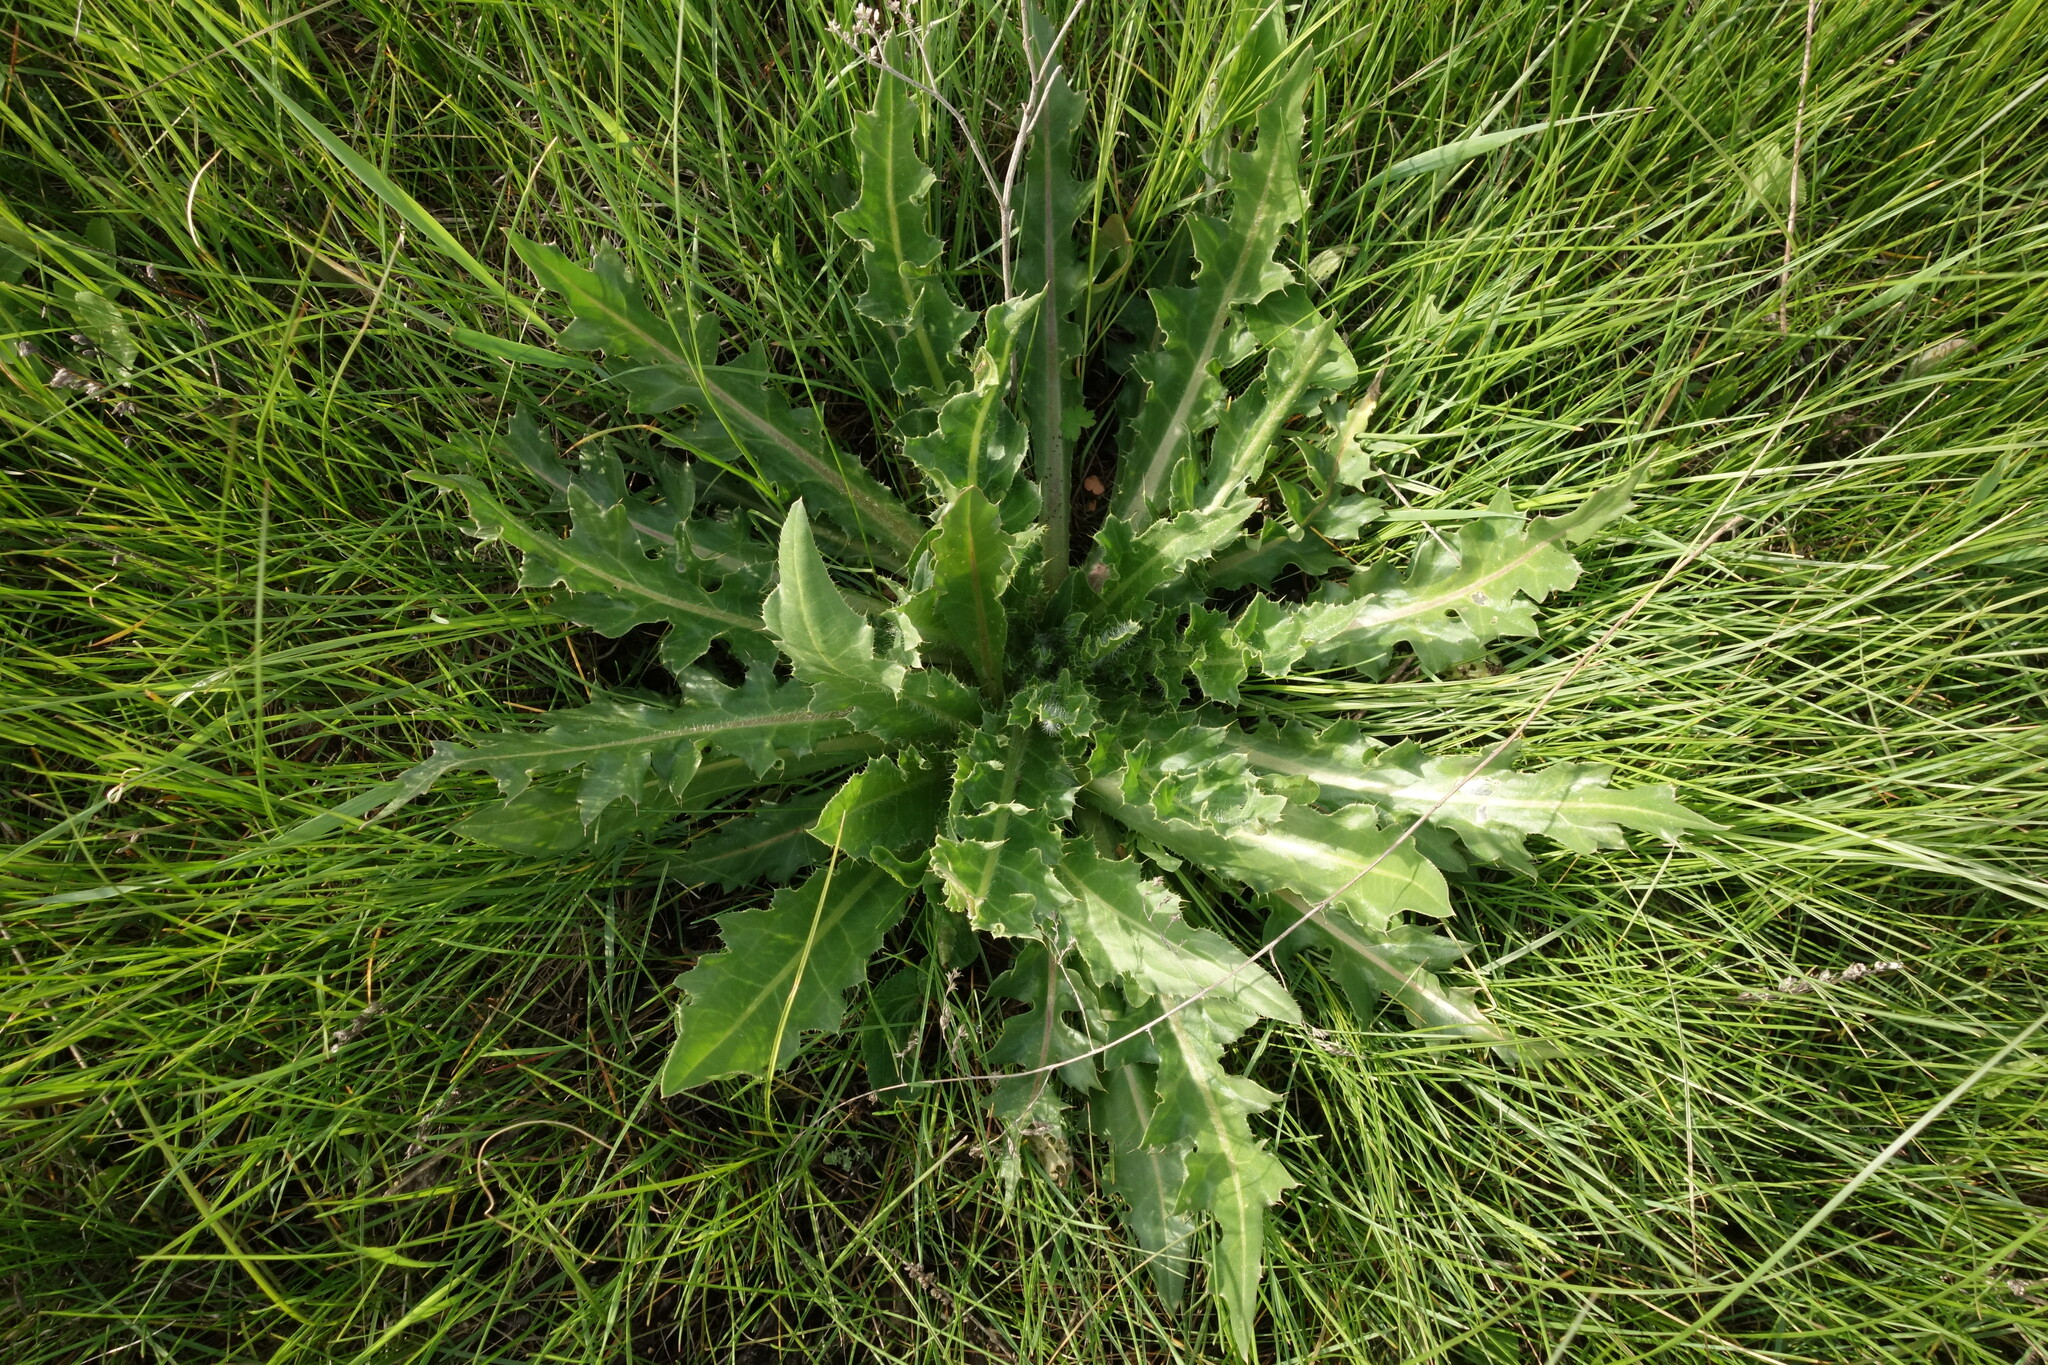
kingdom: Plantae
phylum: Tracheophyta
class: Magnoliopsida
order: Asterales
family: Asteraceae
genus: Cirsium
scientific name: Cirsium esculentum
